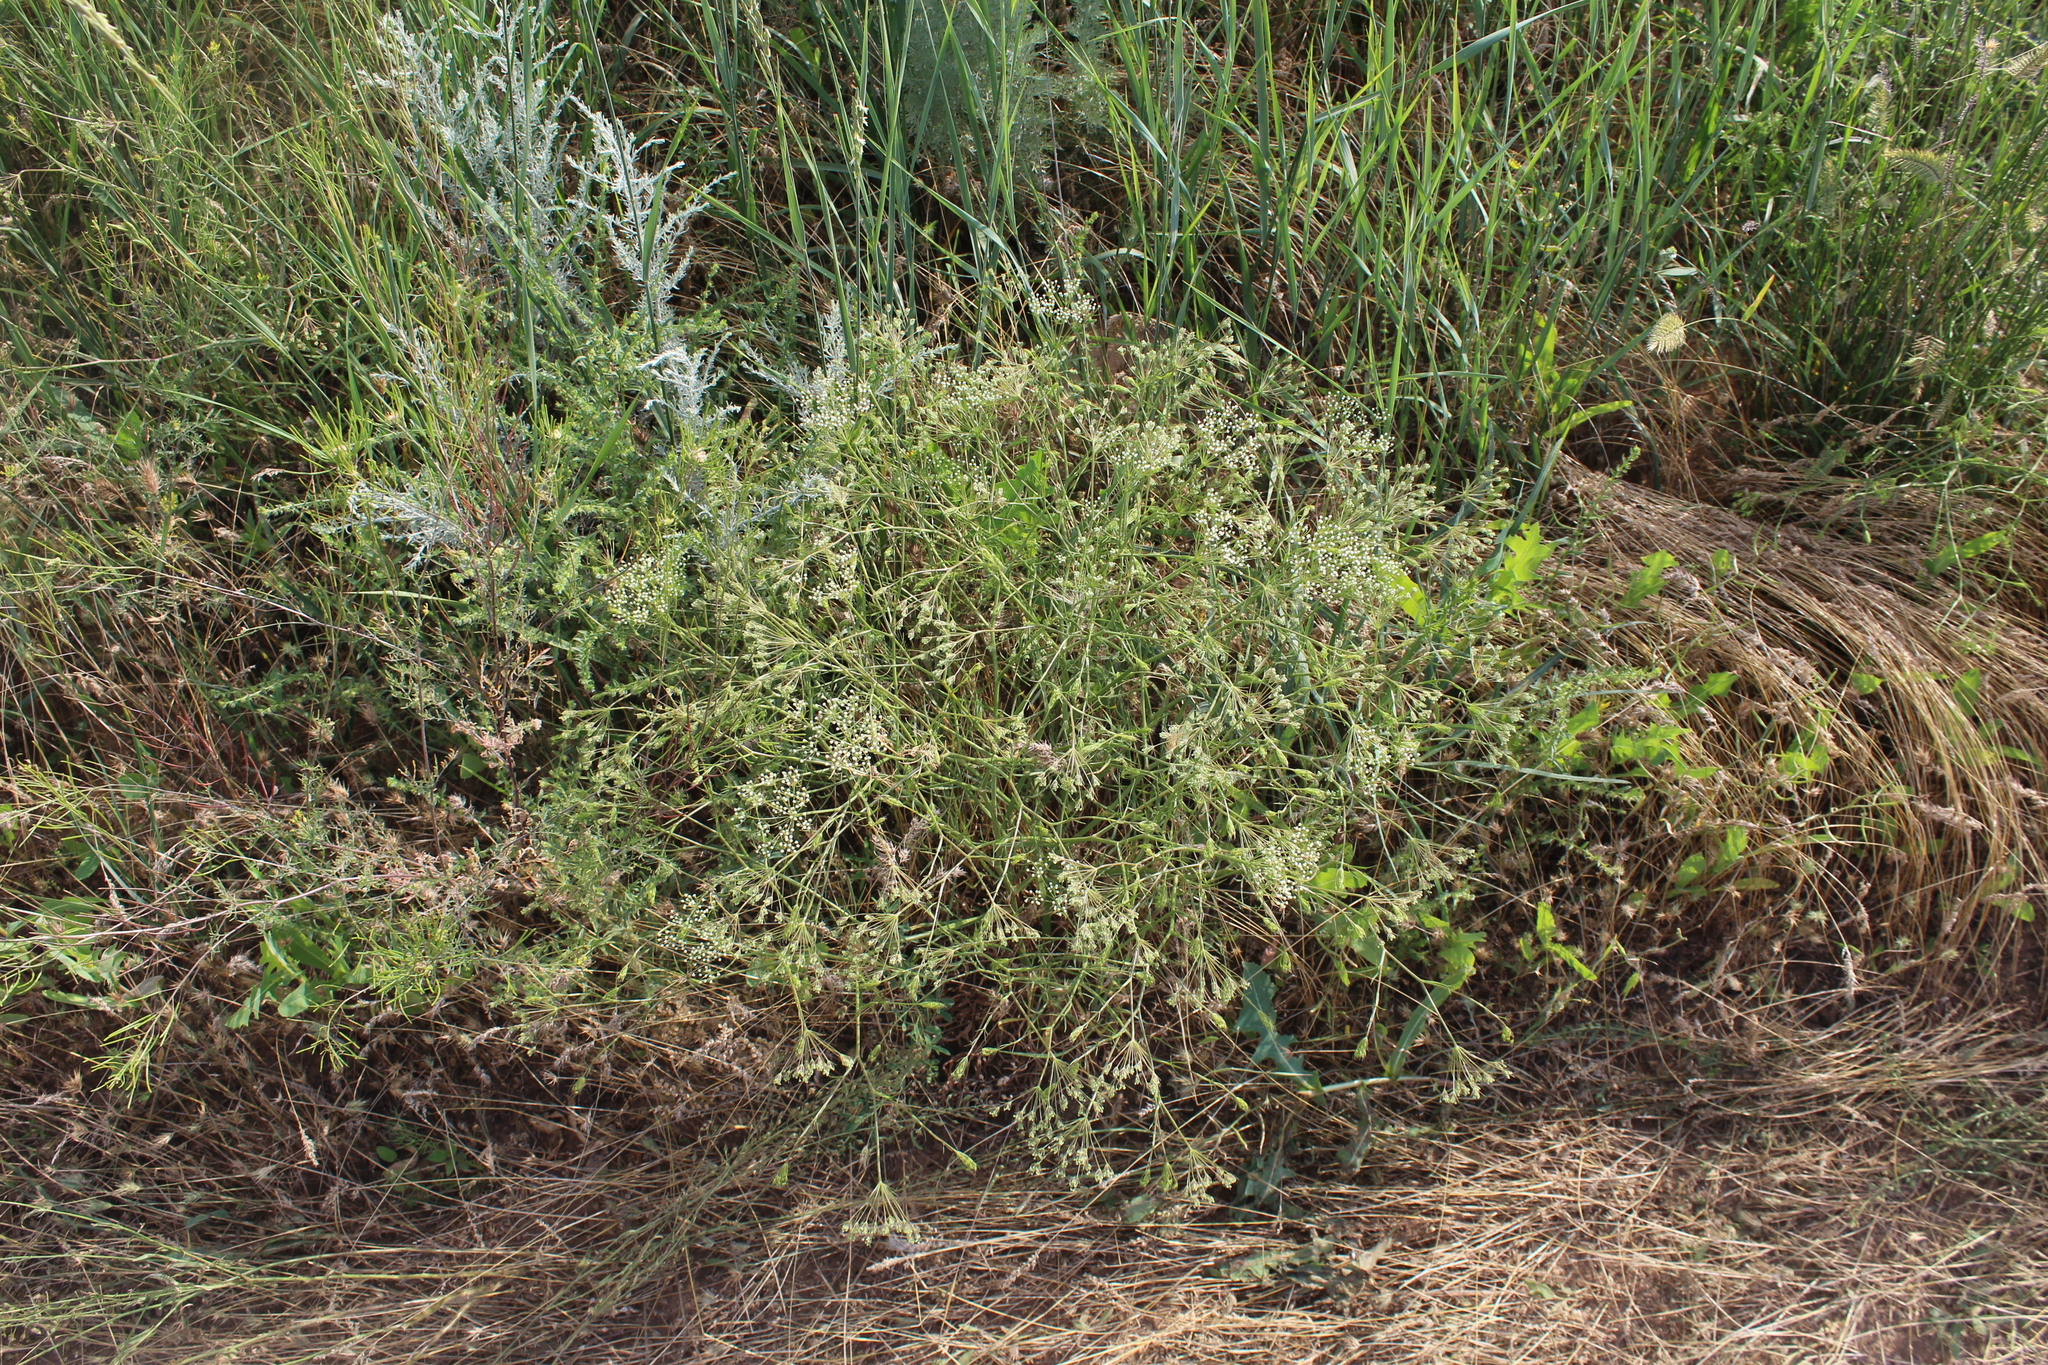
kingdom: Plantae
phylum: Tracheophyta
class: Magnoliopsida
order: Apiales
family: Apiaceae
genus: Falcaria
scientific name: Falcaria vulgaris
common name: Longleaf
